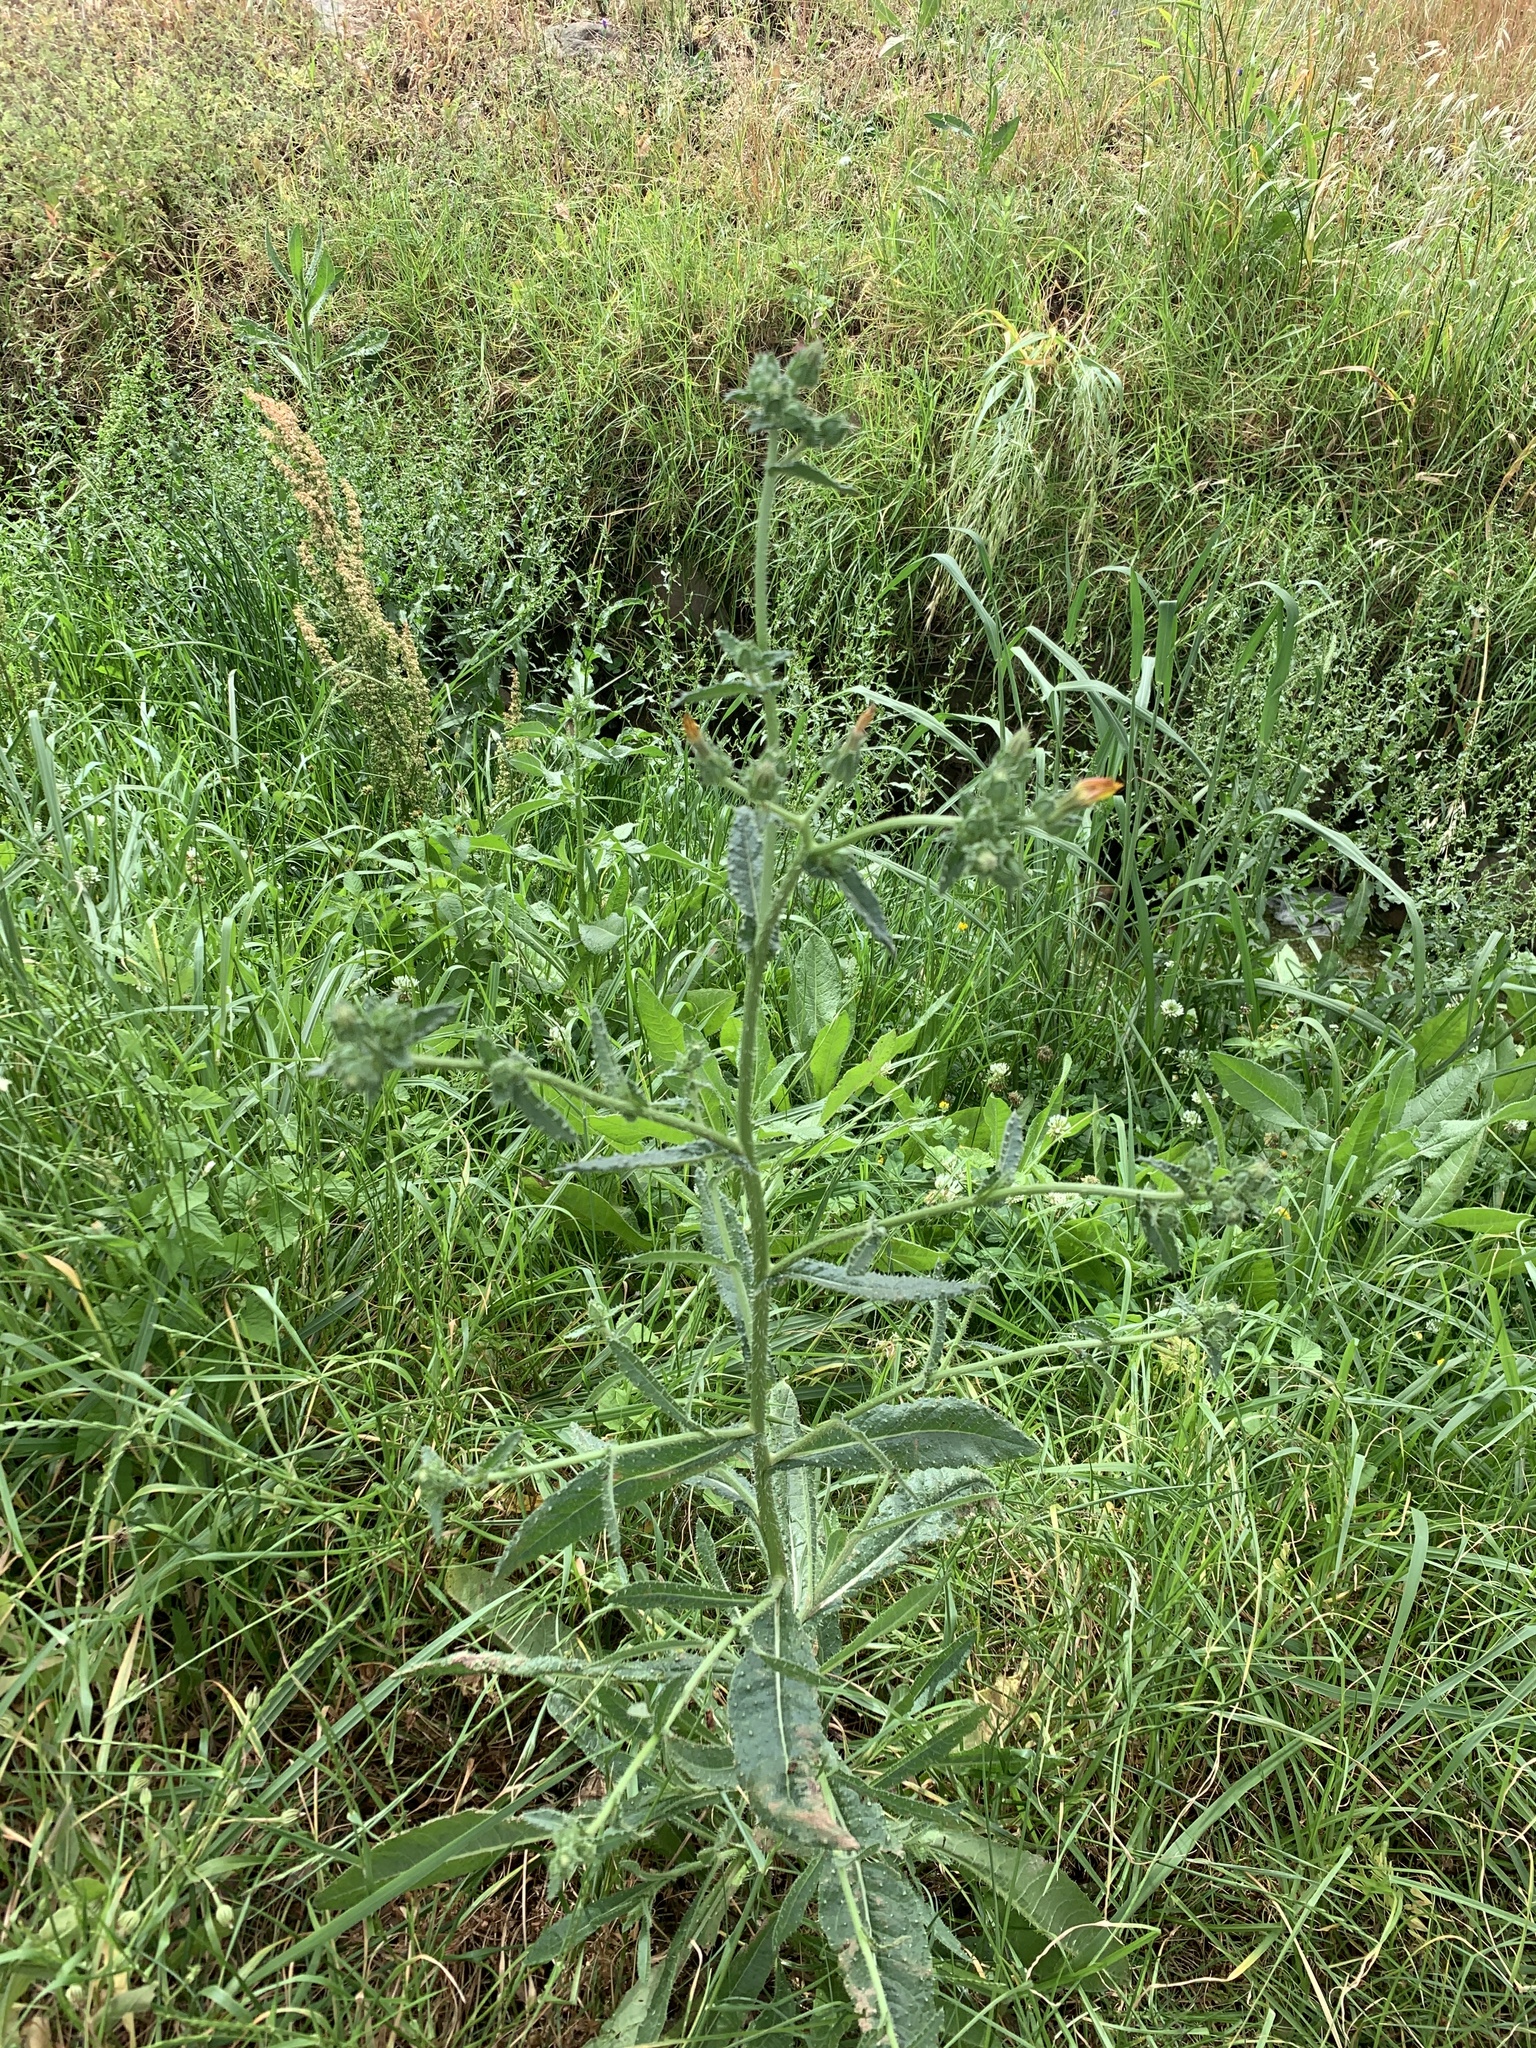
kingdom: Plantae
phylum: Tracheophyta
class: Magnoliopsida
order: Asterales
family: Asteraceae
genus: Helminthotheca
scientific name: Helminthotheca echioides
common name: Ox-tongue
